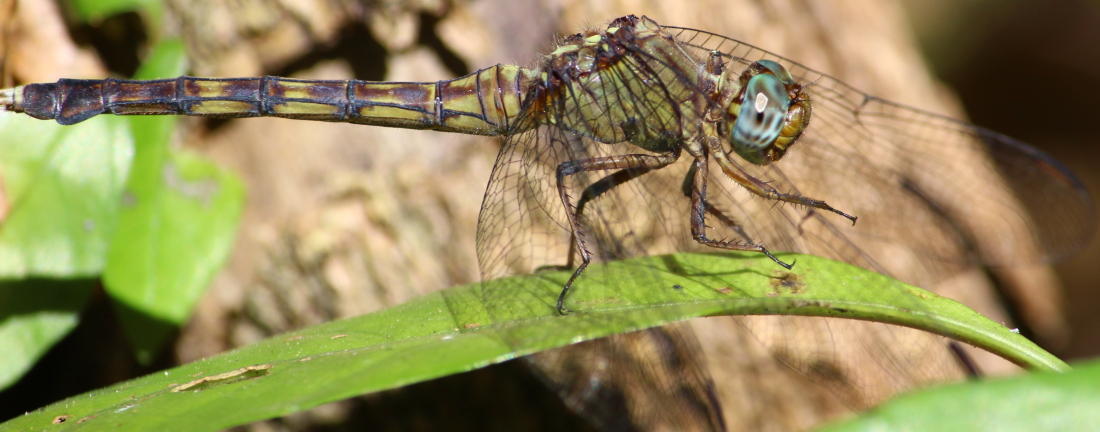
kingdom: Animalia
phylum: Arthropoda
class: Insecta
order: Odonata
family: Libellulidae
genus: Orthetrum
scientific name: Orthetrum julia
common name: Julia skimmer
